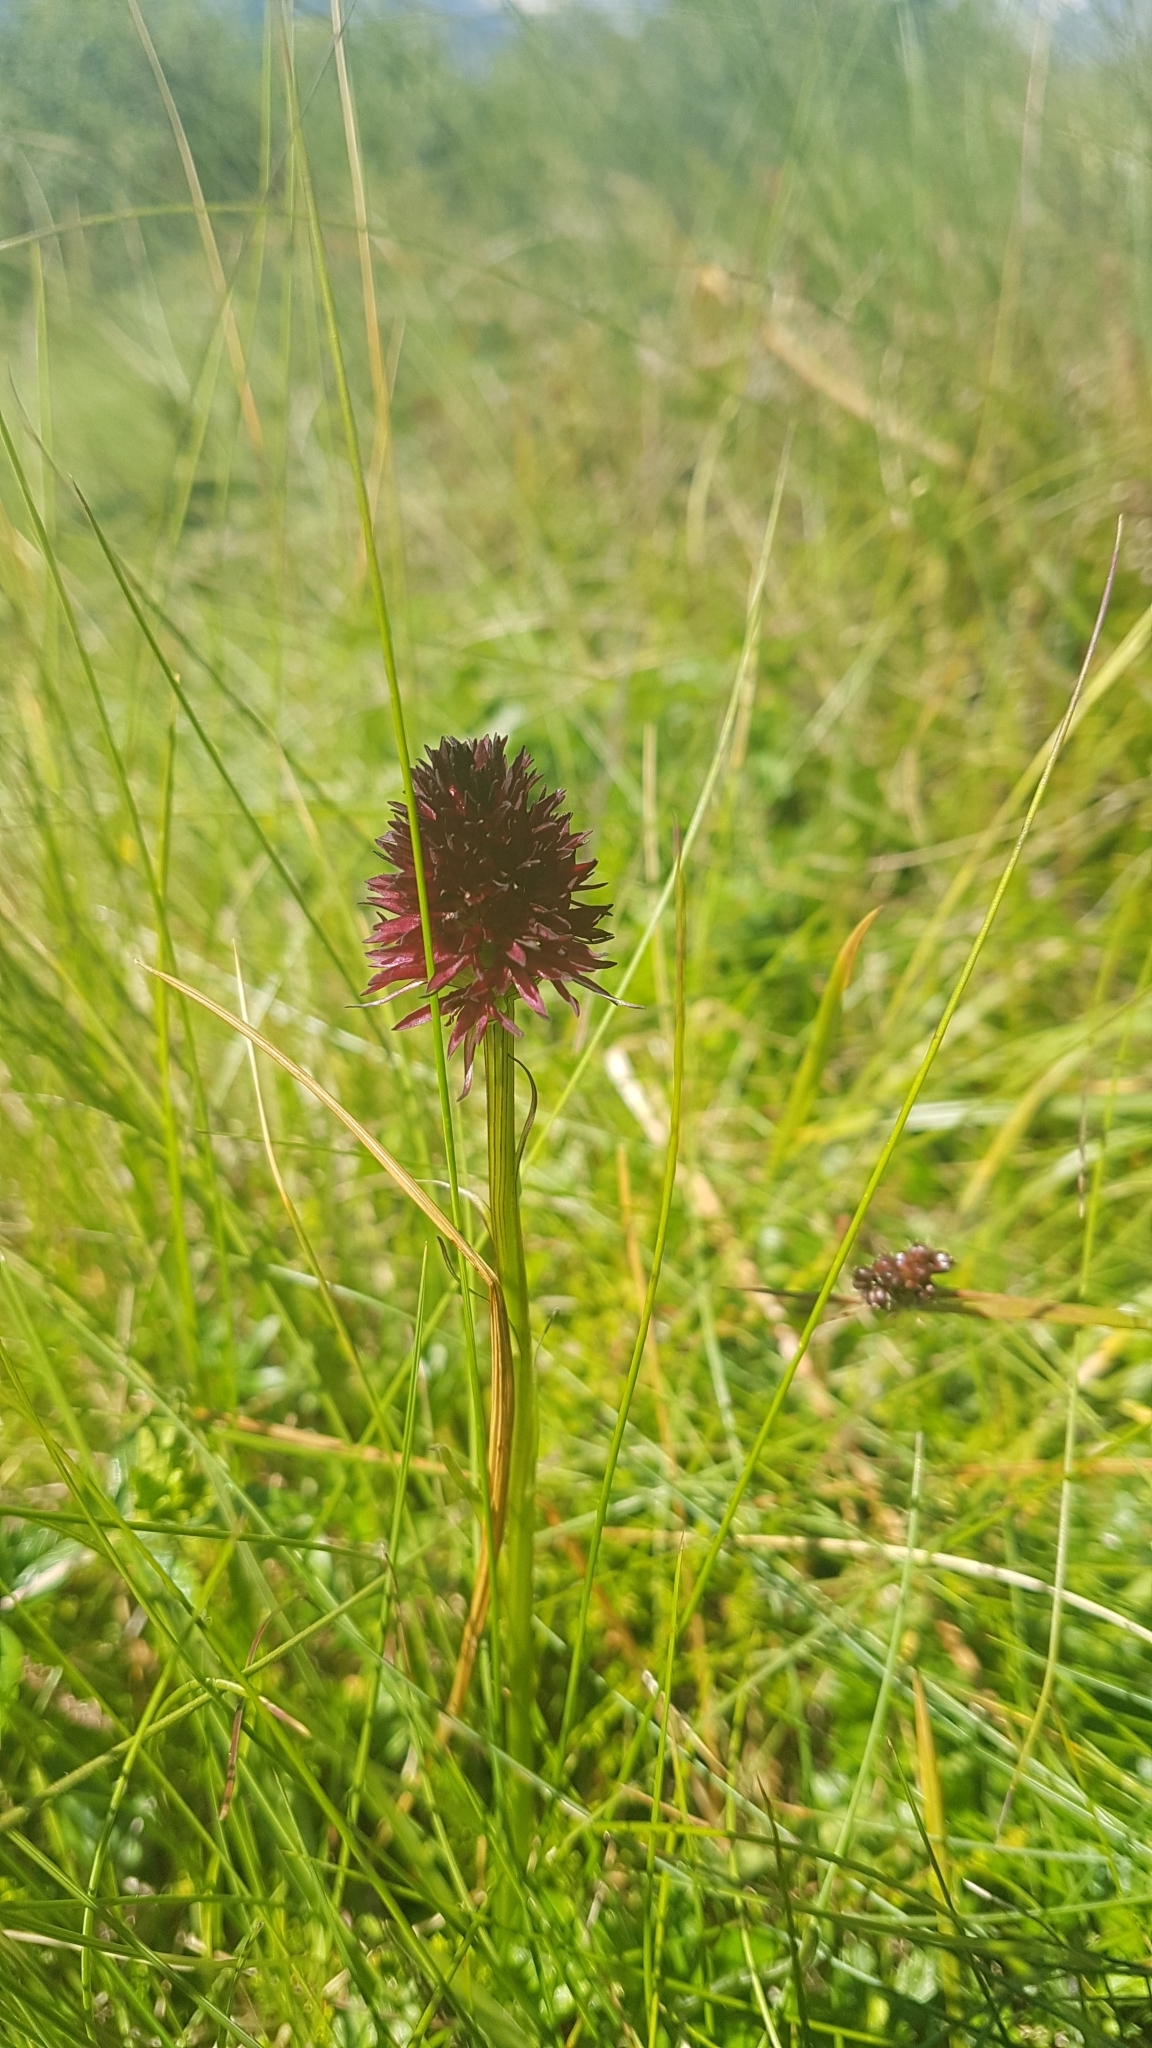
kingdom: Plantae
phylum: Tracheophyta
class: Liliopsida
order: Asparagales
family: Orchidaceae
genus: Gymnadenia
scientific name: Gymnadenia rhellicani
